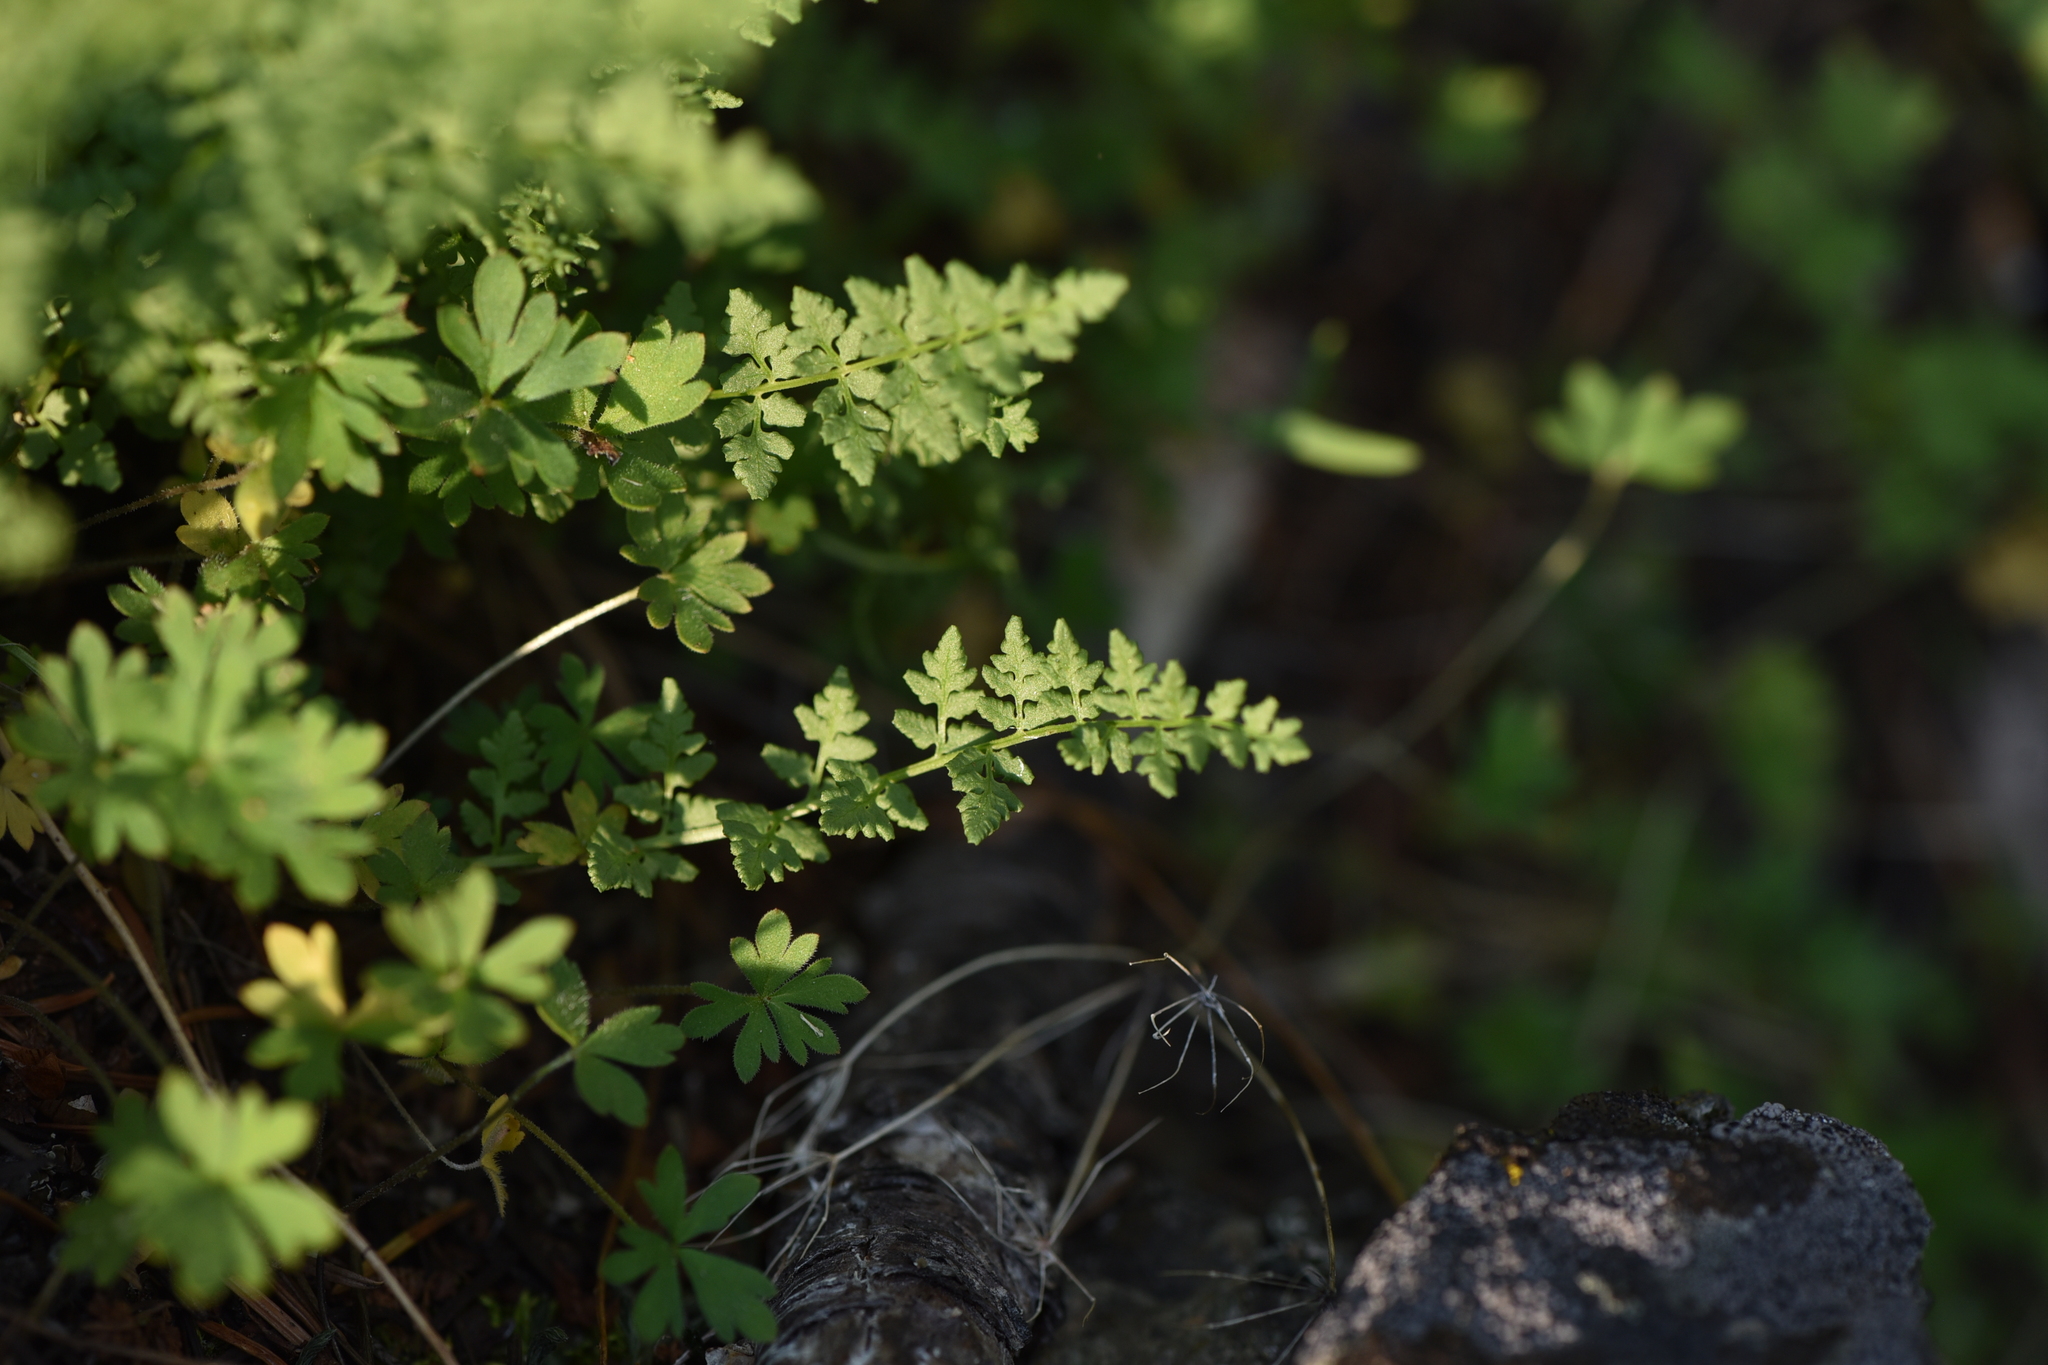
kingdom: Plantae
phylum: Tracheophyta
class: Polypodiopsida
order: Polypodiales
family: Cystopteridaceae
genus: Cystopteris
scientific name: Cystopteris fragilis
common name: Brittle bladder fern
